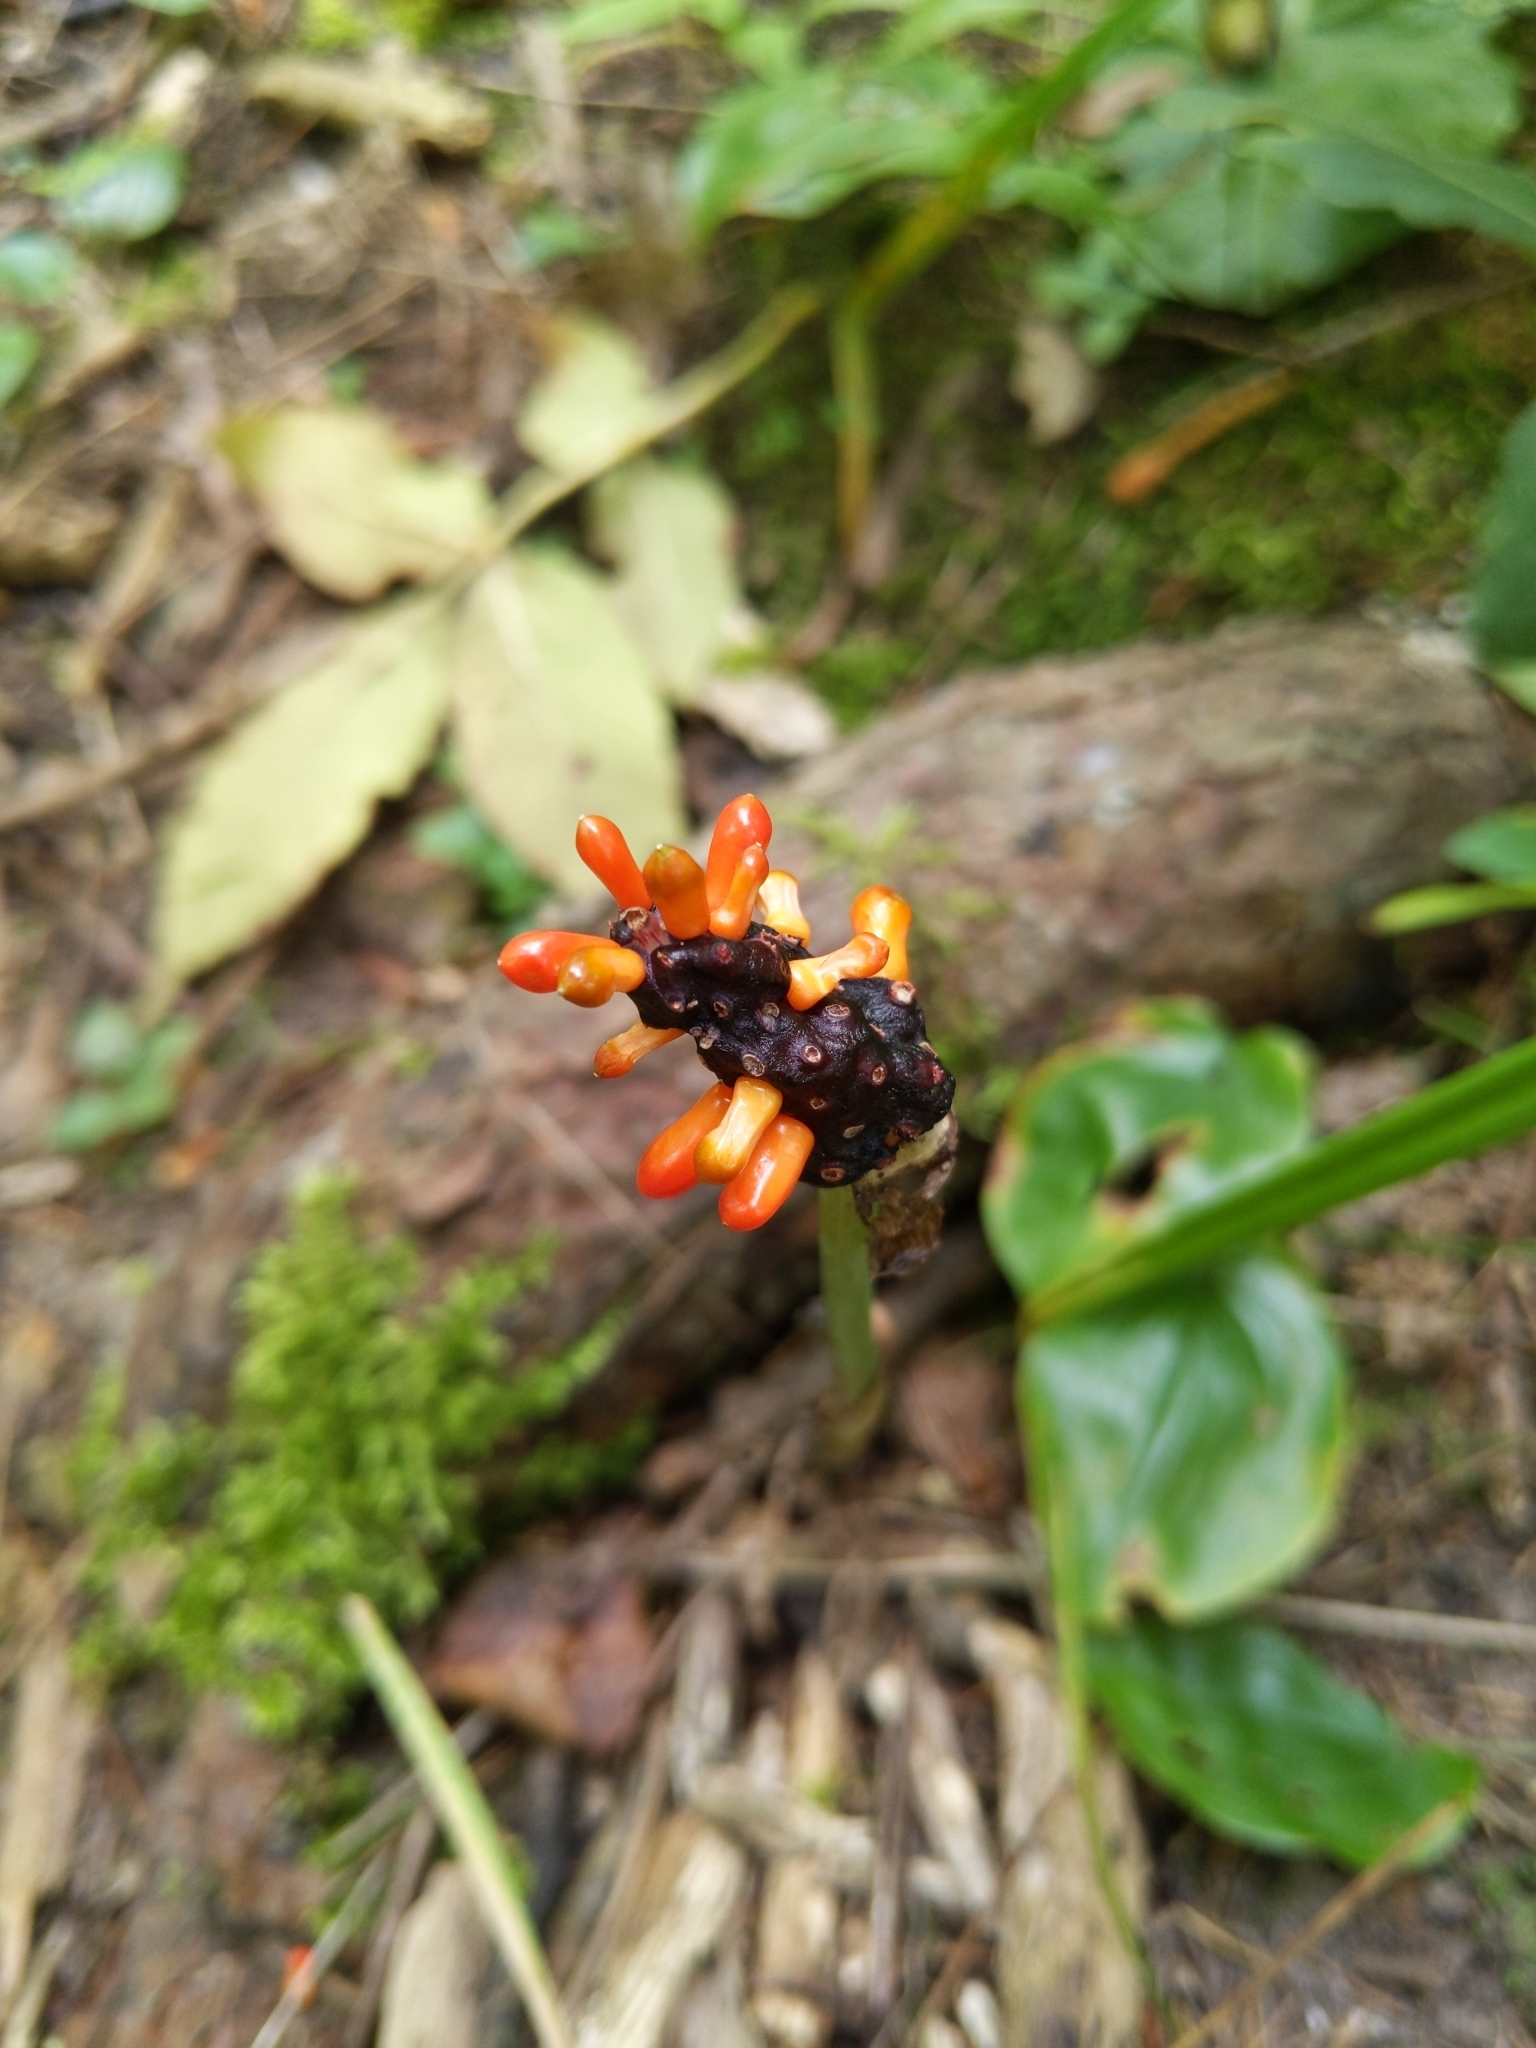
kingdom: Plantae
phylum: Tracheophyta
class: Liliopsida
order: Alismatales
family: Araceae
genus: Arisaema
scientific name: Arisaema triphyllum
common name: Jack-in-the-pulpit
